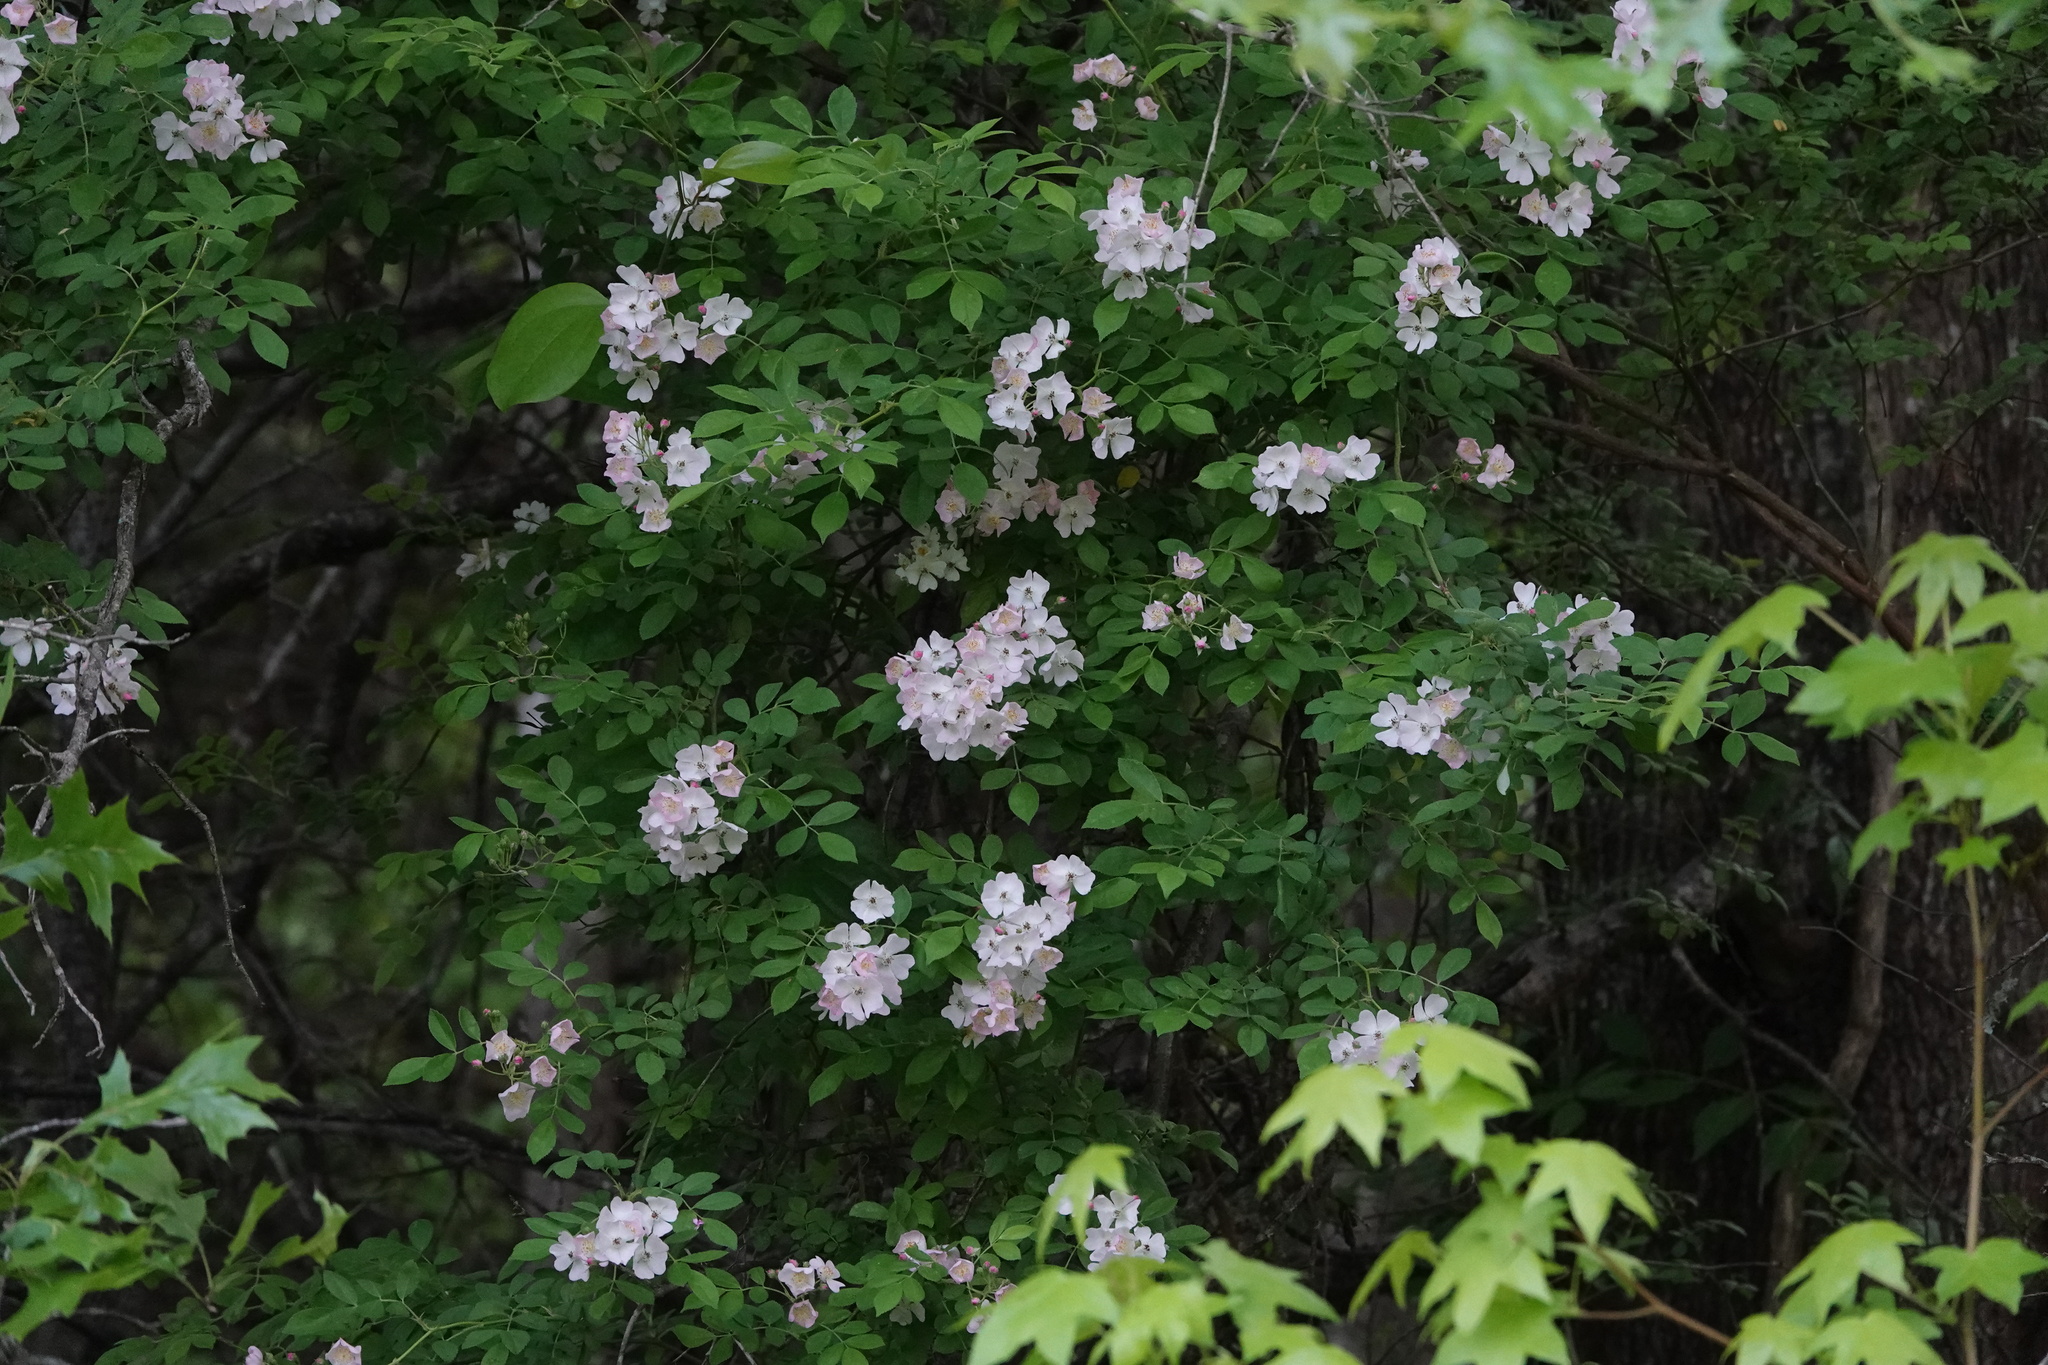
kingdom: Plantae
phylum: Tracheophyta
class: Magnoliopsida
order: Rosales
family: Rosaceae
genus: Rosa
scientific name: Rosa multiflora
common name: Multiflora rose
